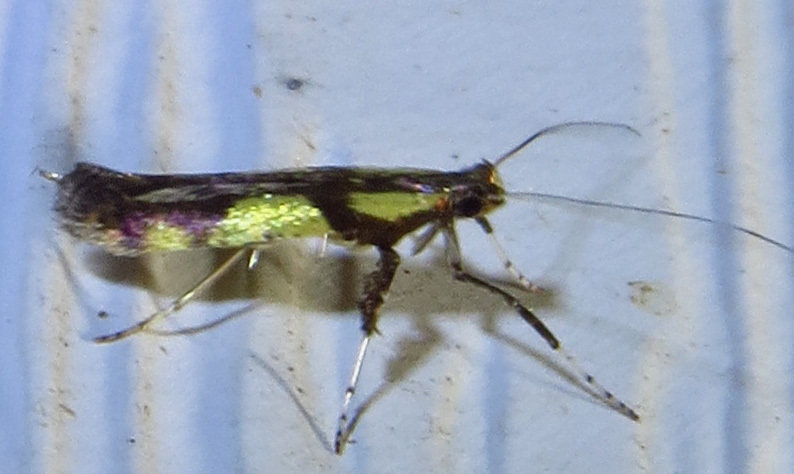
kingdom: Animalia
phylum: Arthropoda
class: Insecta
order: Lepidoptera
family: Gracillariidae
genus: Caloptilia
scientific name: Caloptilia blandella
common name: Walnut caloptilia moth
